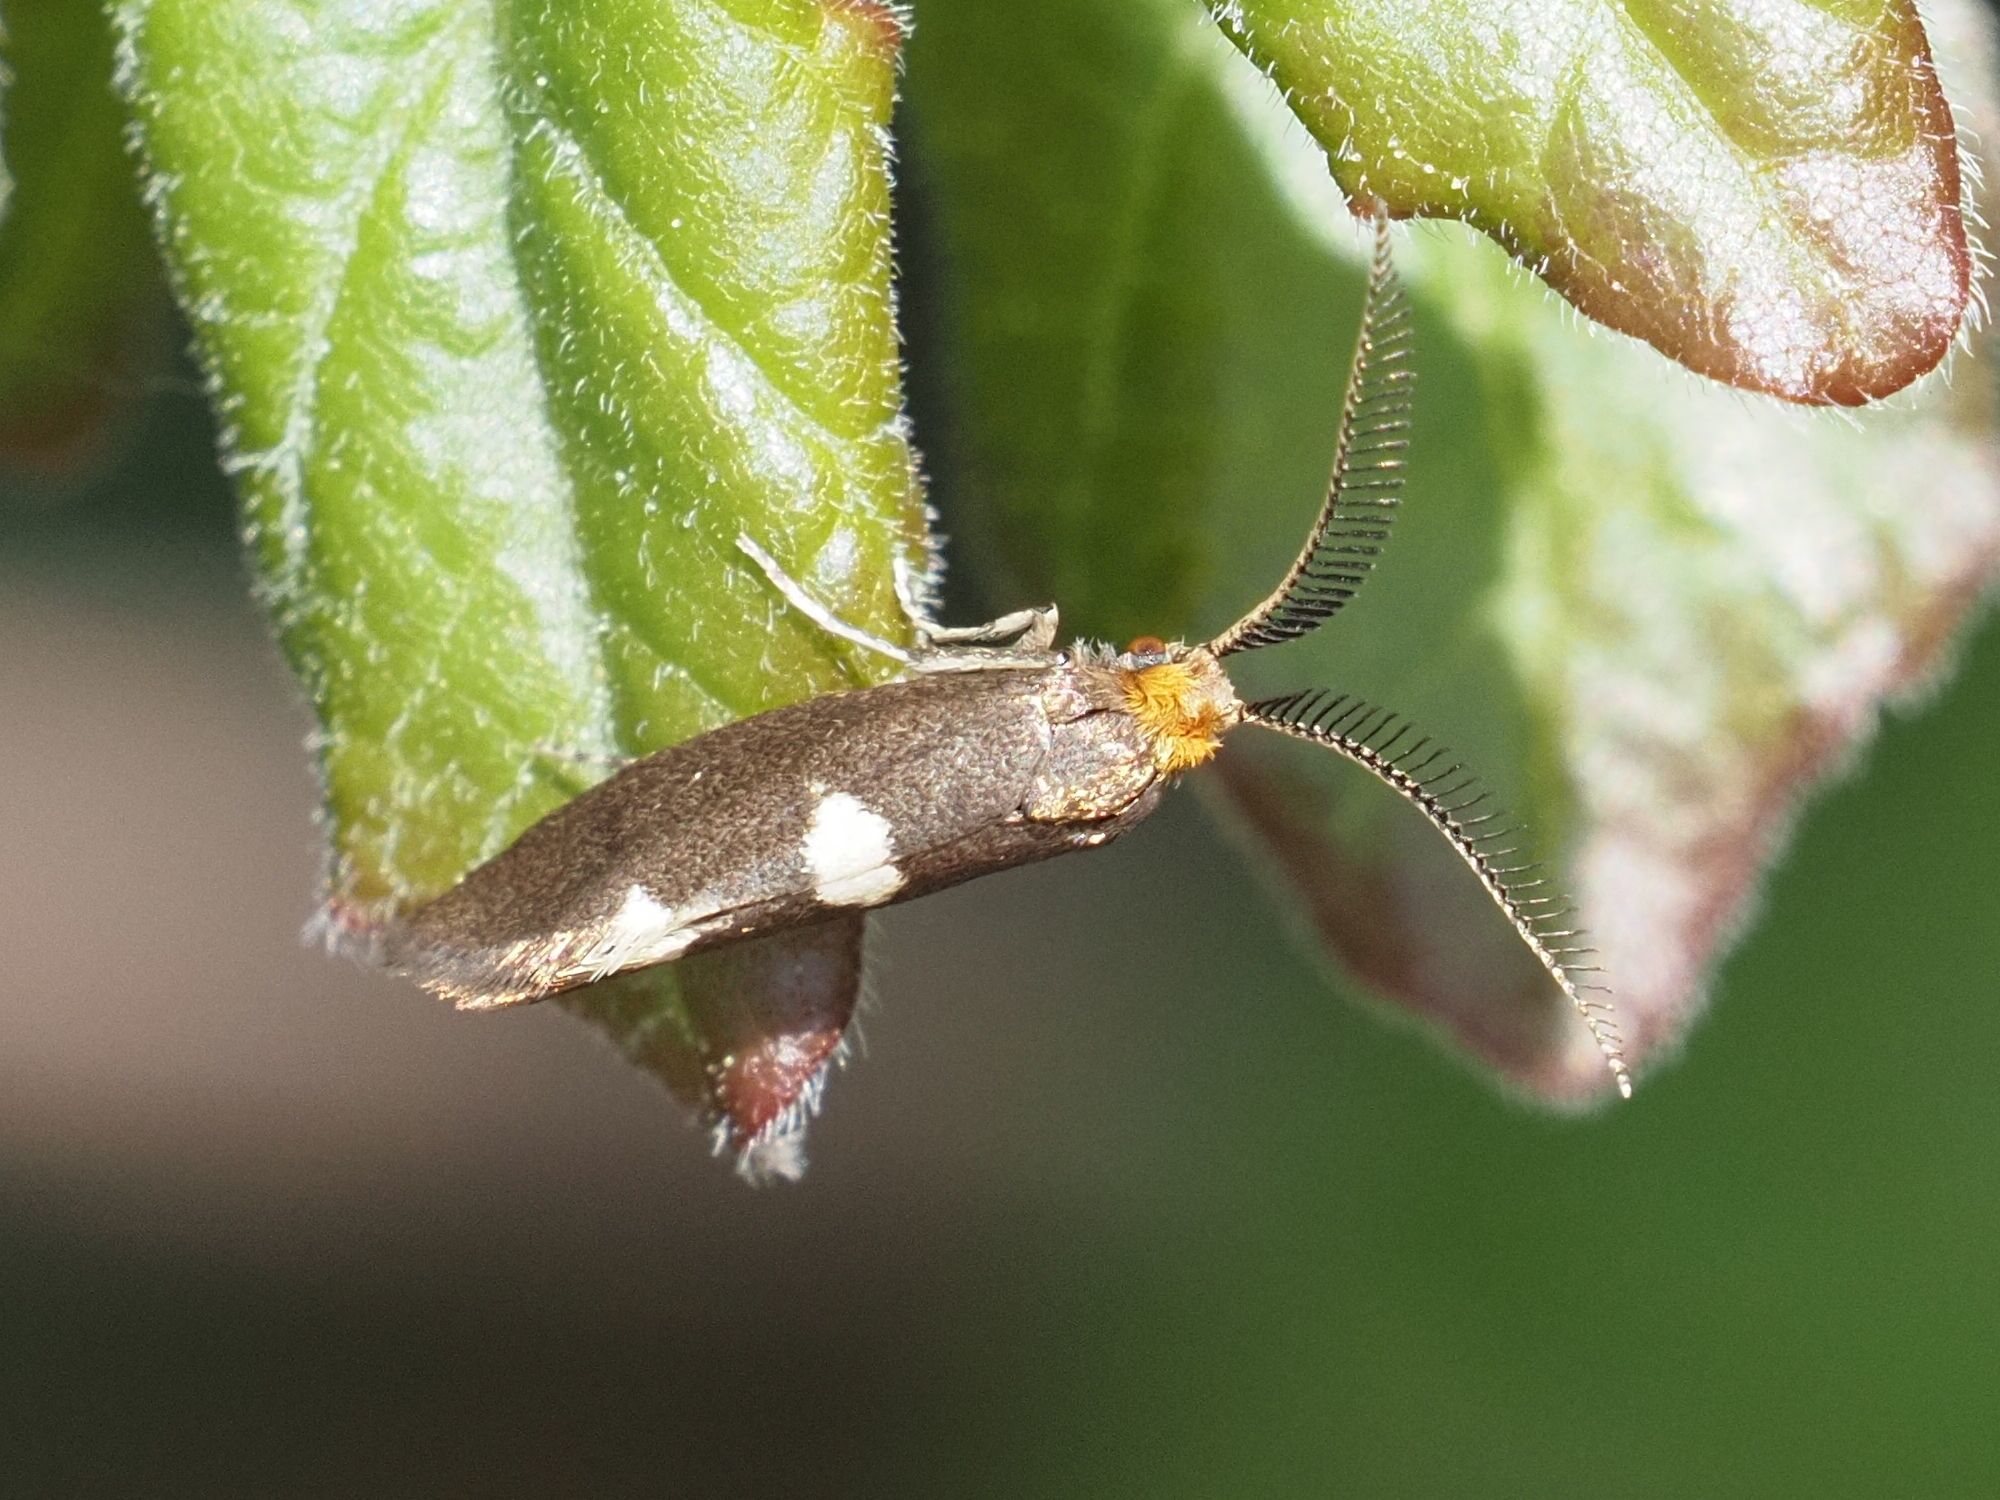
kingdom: Animalia
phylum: Arthropoda
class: Insecta
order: Lepidoptera
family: Incurvariidae
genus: Incurvaria
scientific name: Incurvaria masculella
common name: Feathered leaf-cutter
